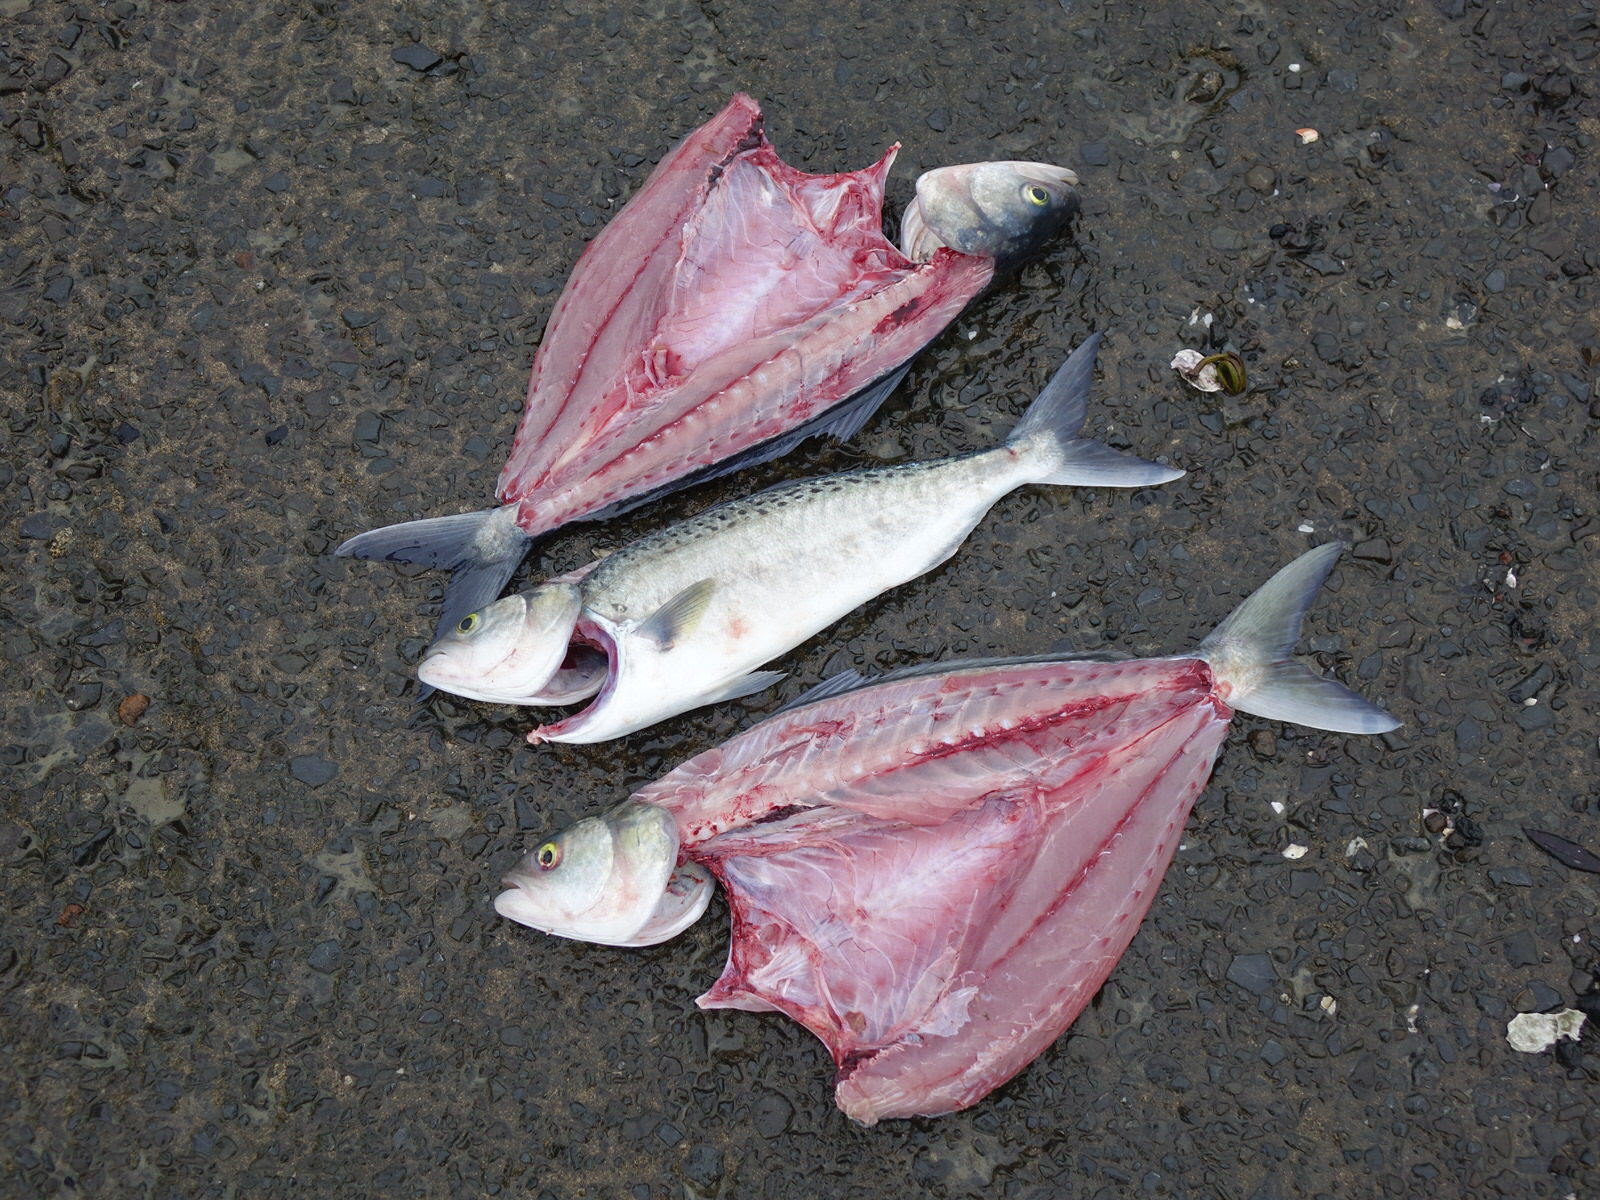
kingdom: Animalia
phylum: Chordata
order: Perciformes
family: Arripidae
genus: Arripis
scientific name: Arripis trutta
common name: Kahawai
